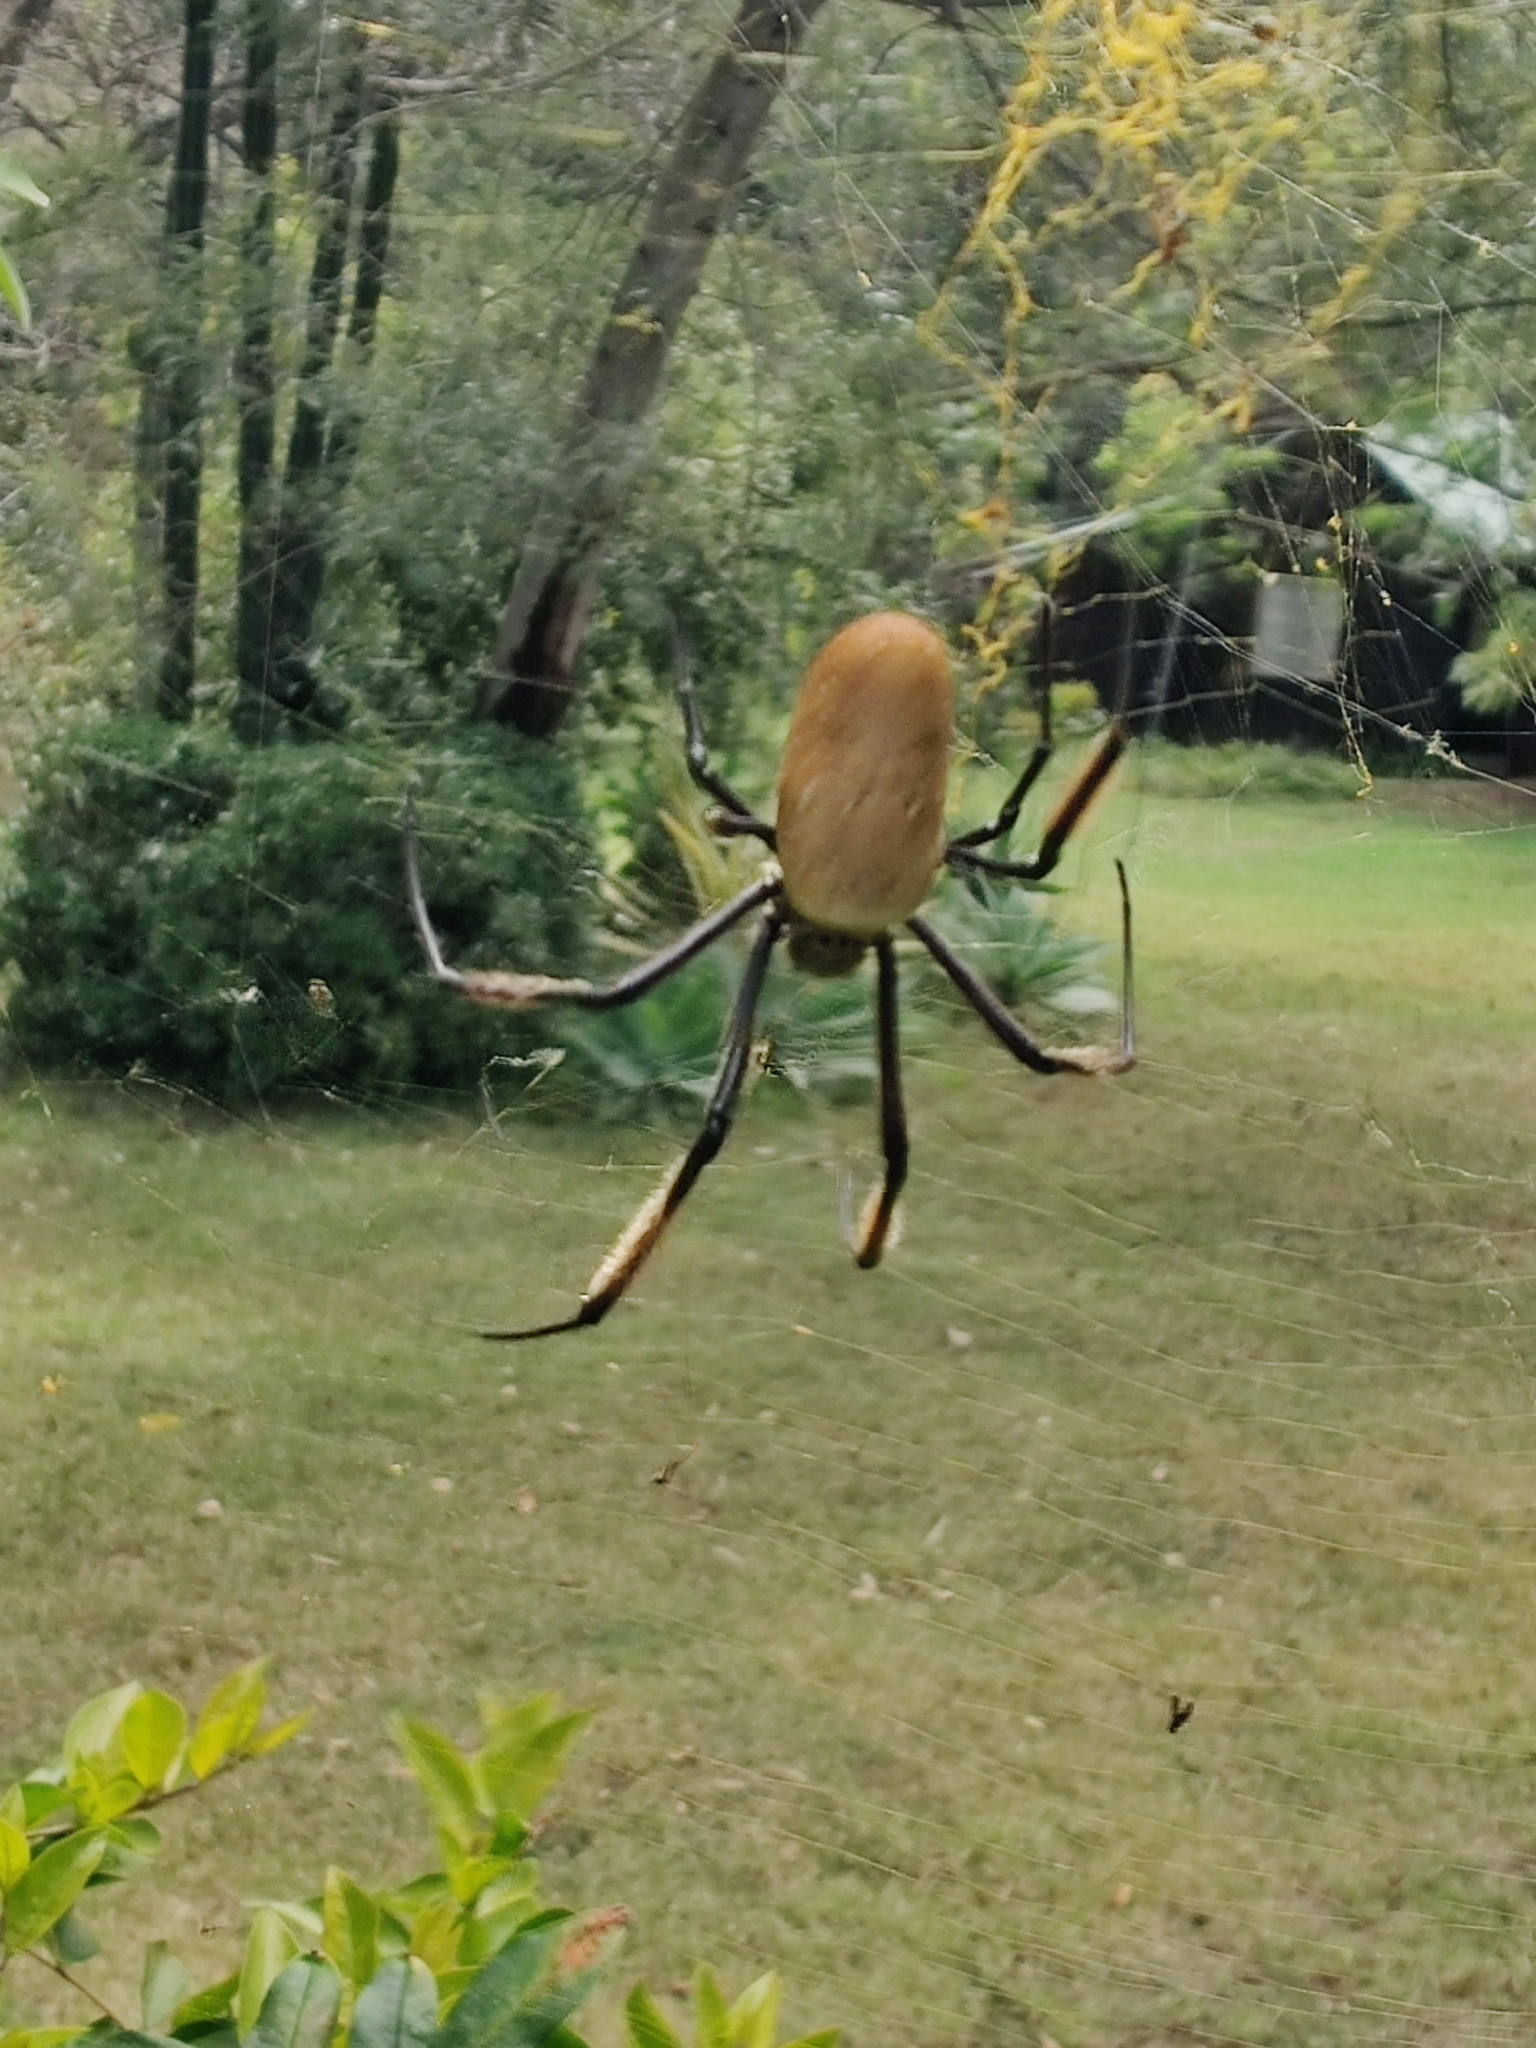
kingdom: Animalia
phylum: Arthropoda
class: Arachnida
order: Araneae
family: Araneidae
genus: Trichonephila
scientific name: Trichonephila fenestrata
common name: Hairy golden orb weaver
